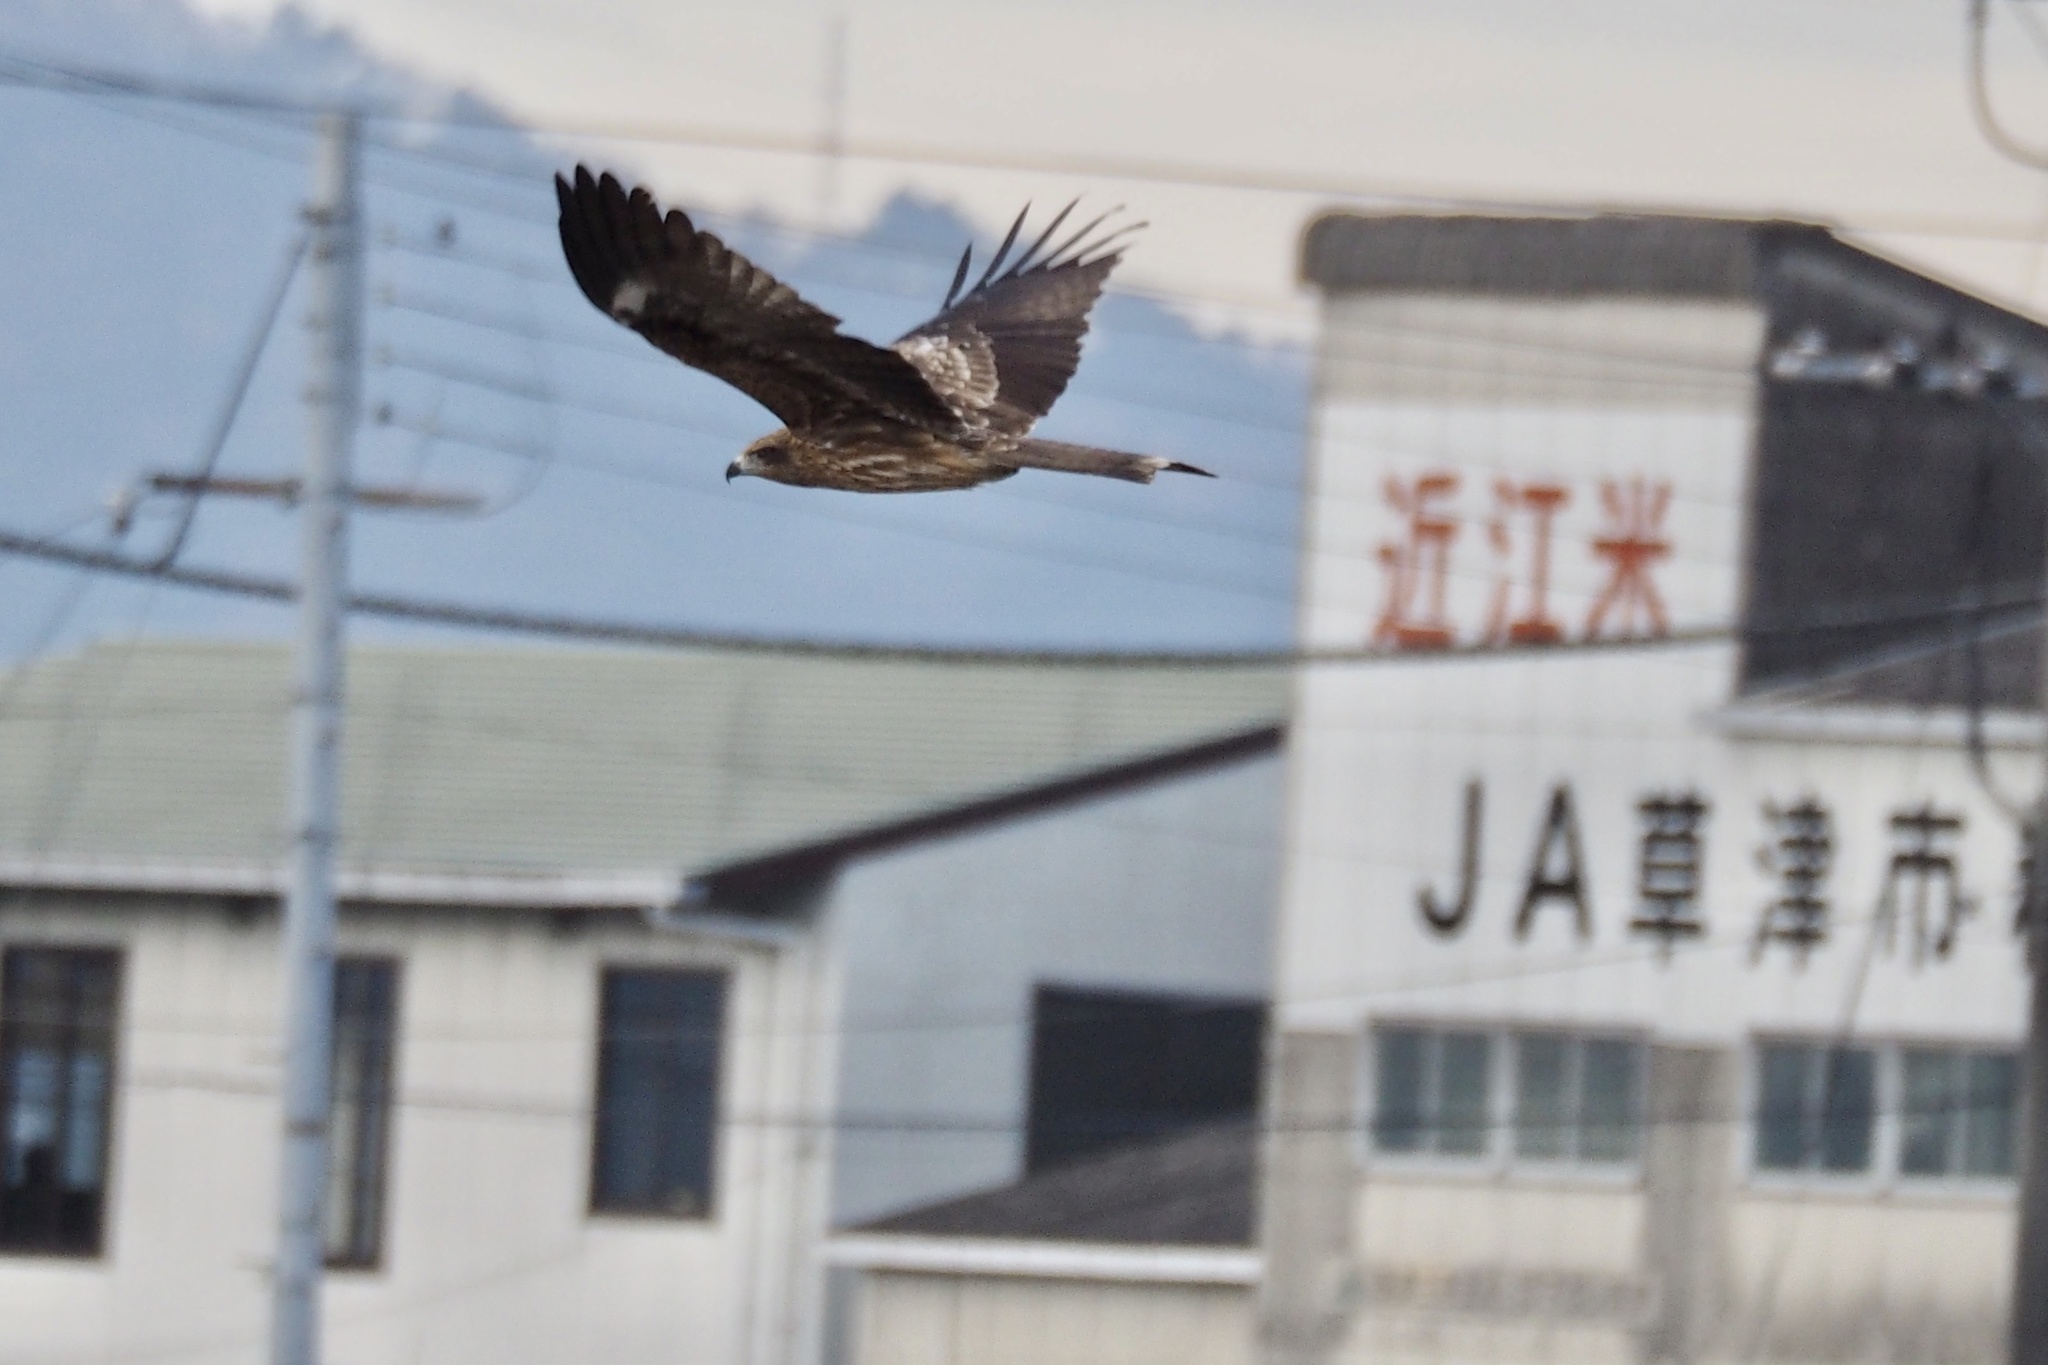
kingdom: Animalia
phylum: Chordata
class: Aves
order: Accipitriformes
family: Accipitridae
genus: Milvus
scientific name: Milvus migrans
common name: Black kite
